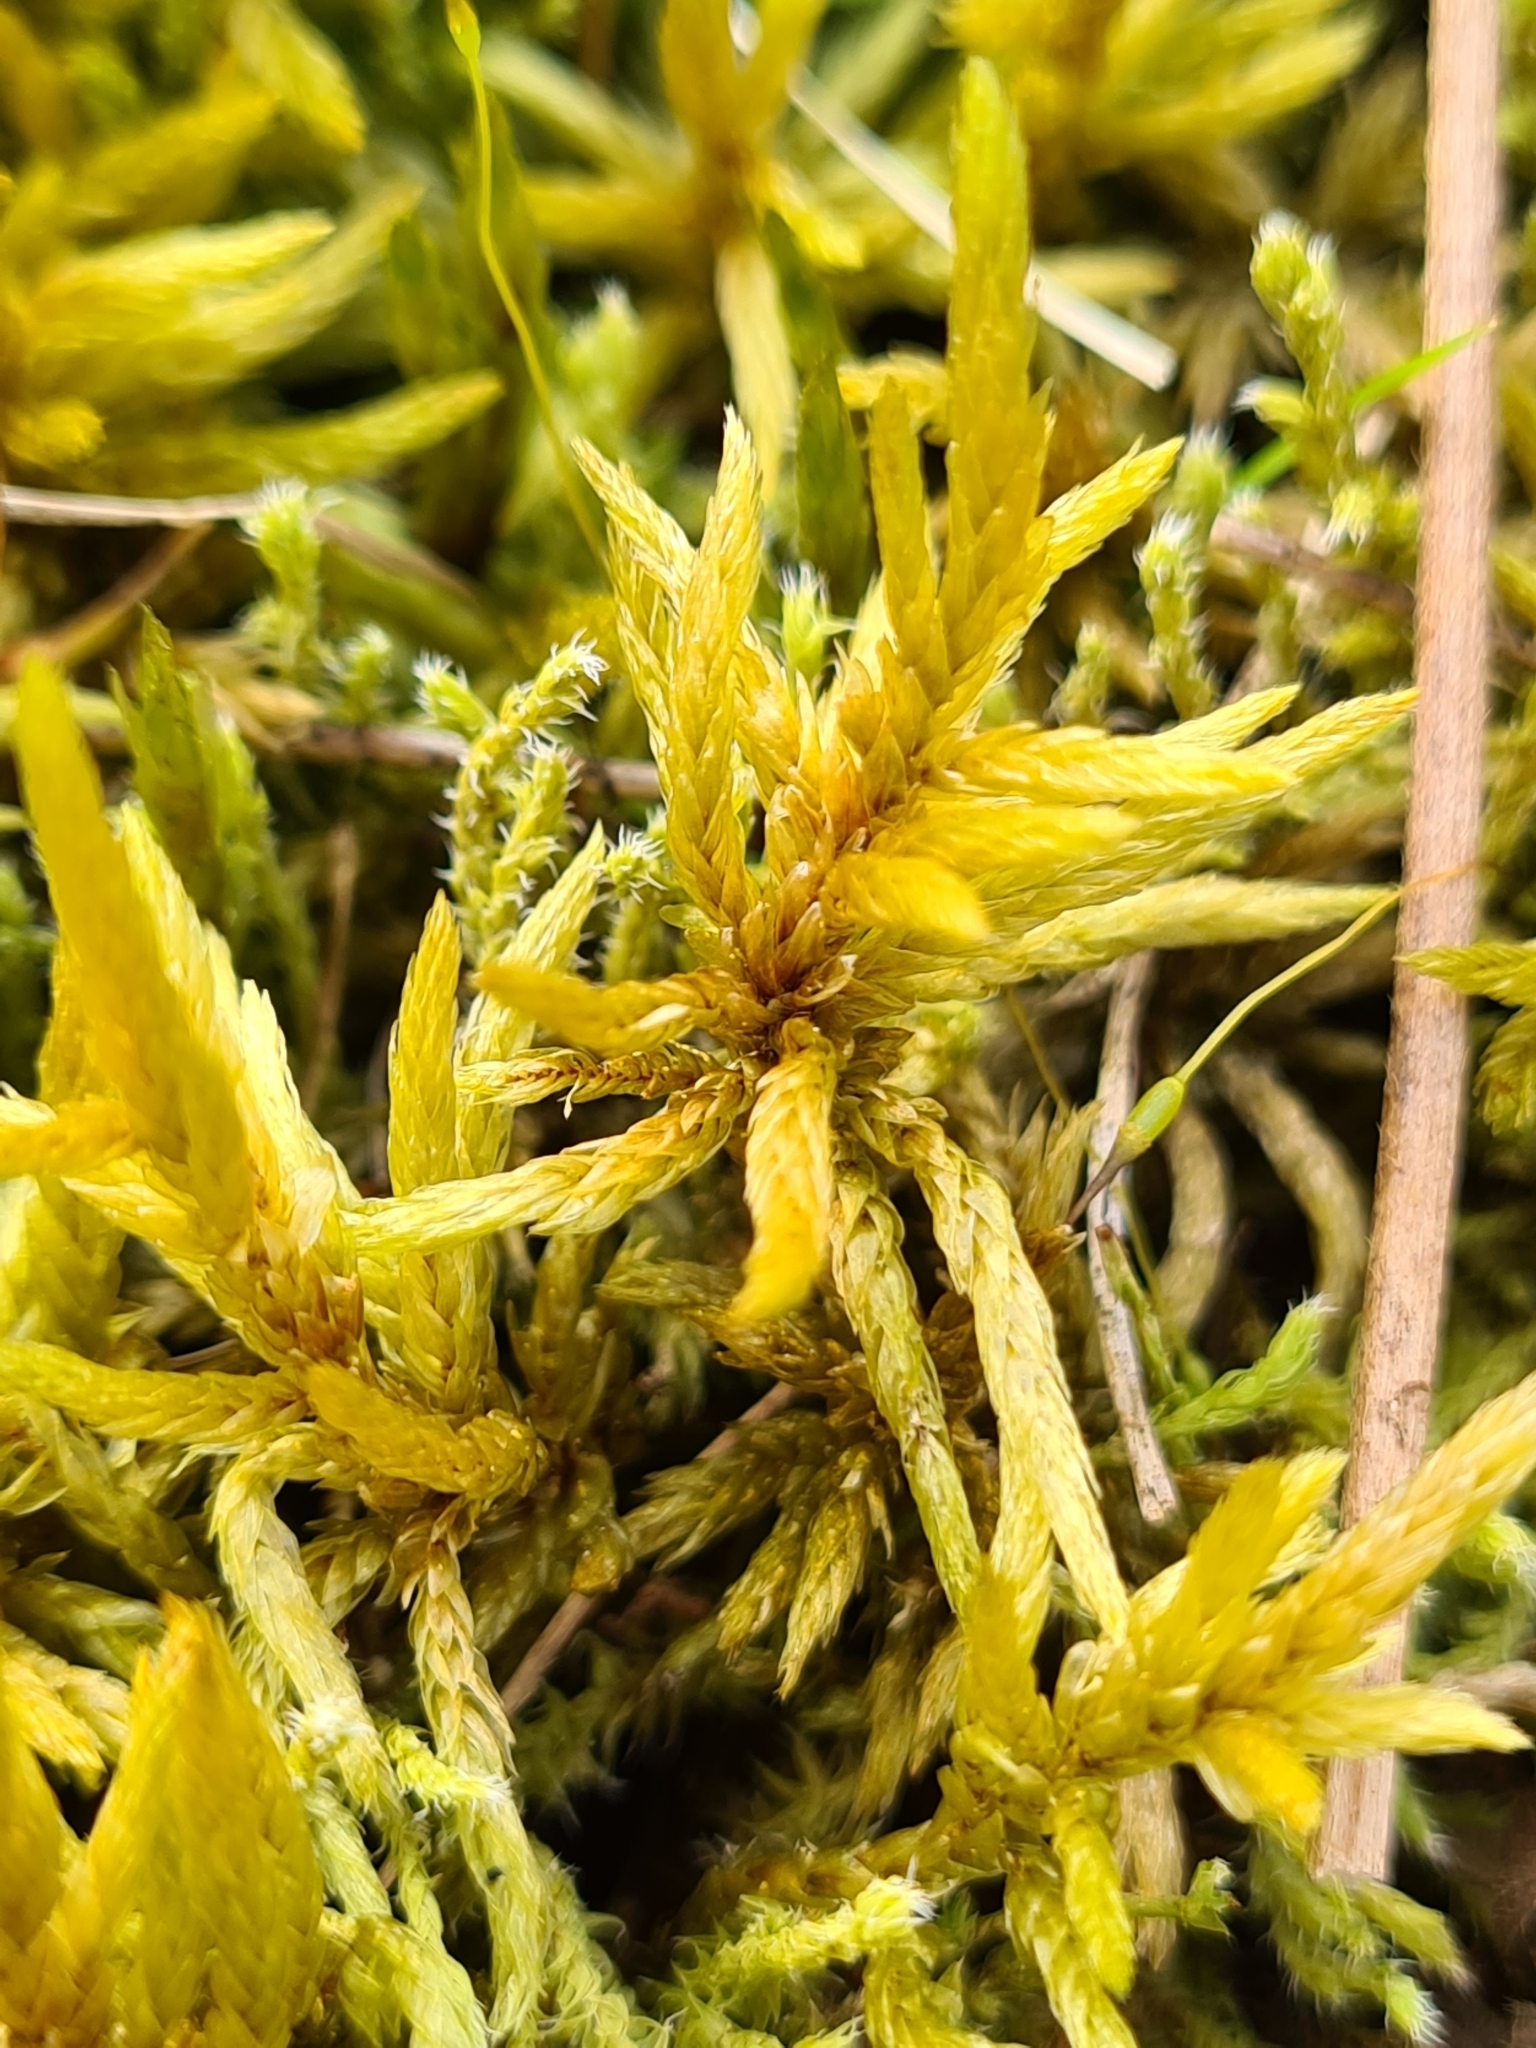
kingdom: Plantae
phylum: Bryophyta
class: Bryopsida
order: Hypnales
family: Climaciaceae
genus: Climacium
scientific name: Climacium dendroides
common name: Northern tree moss
